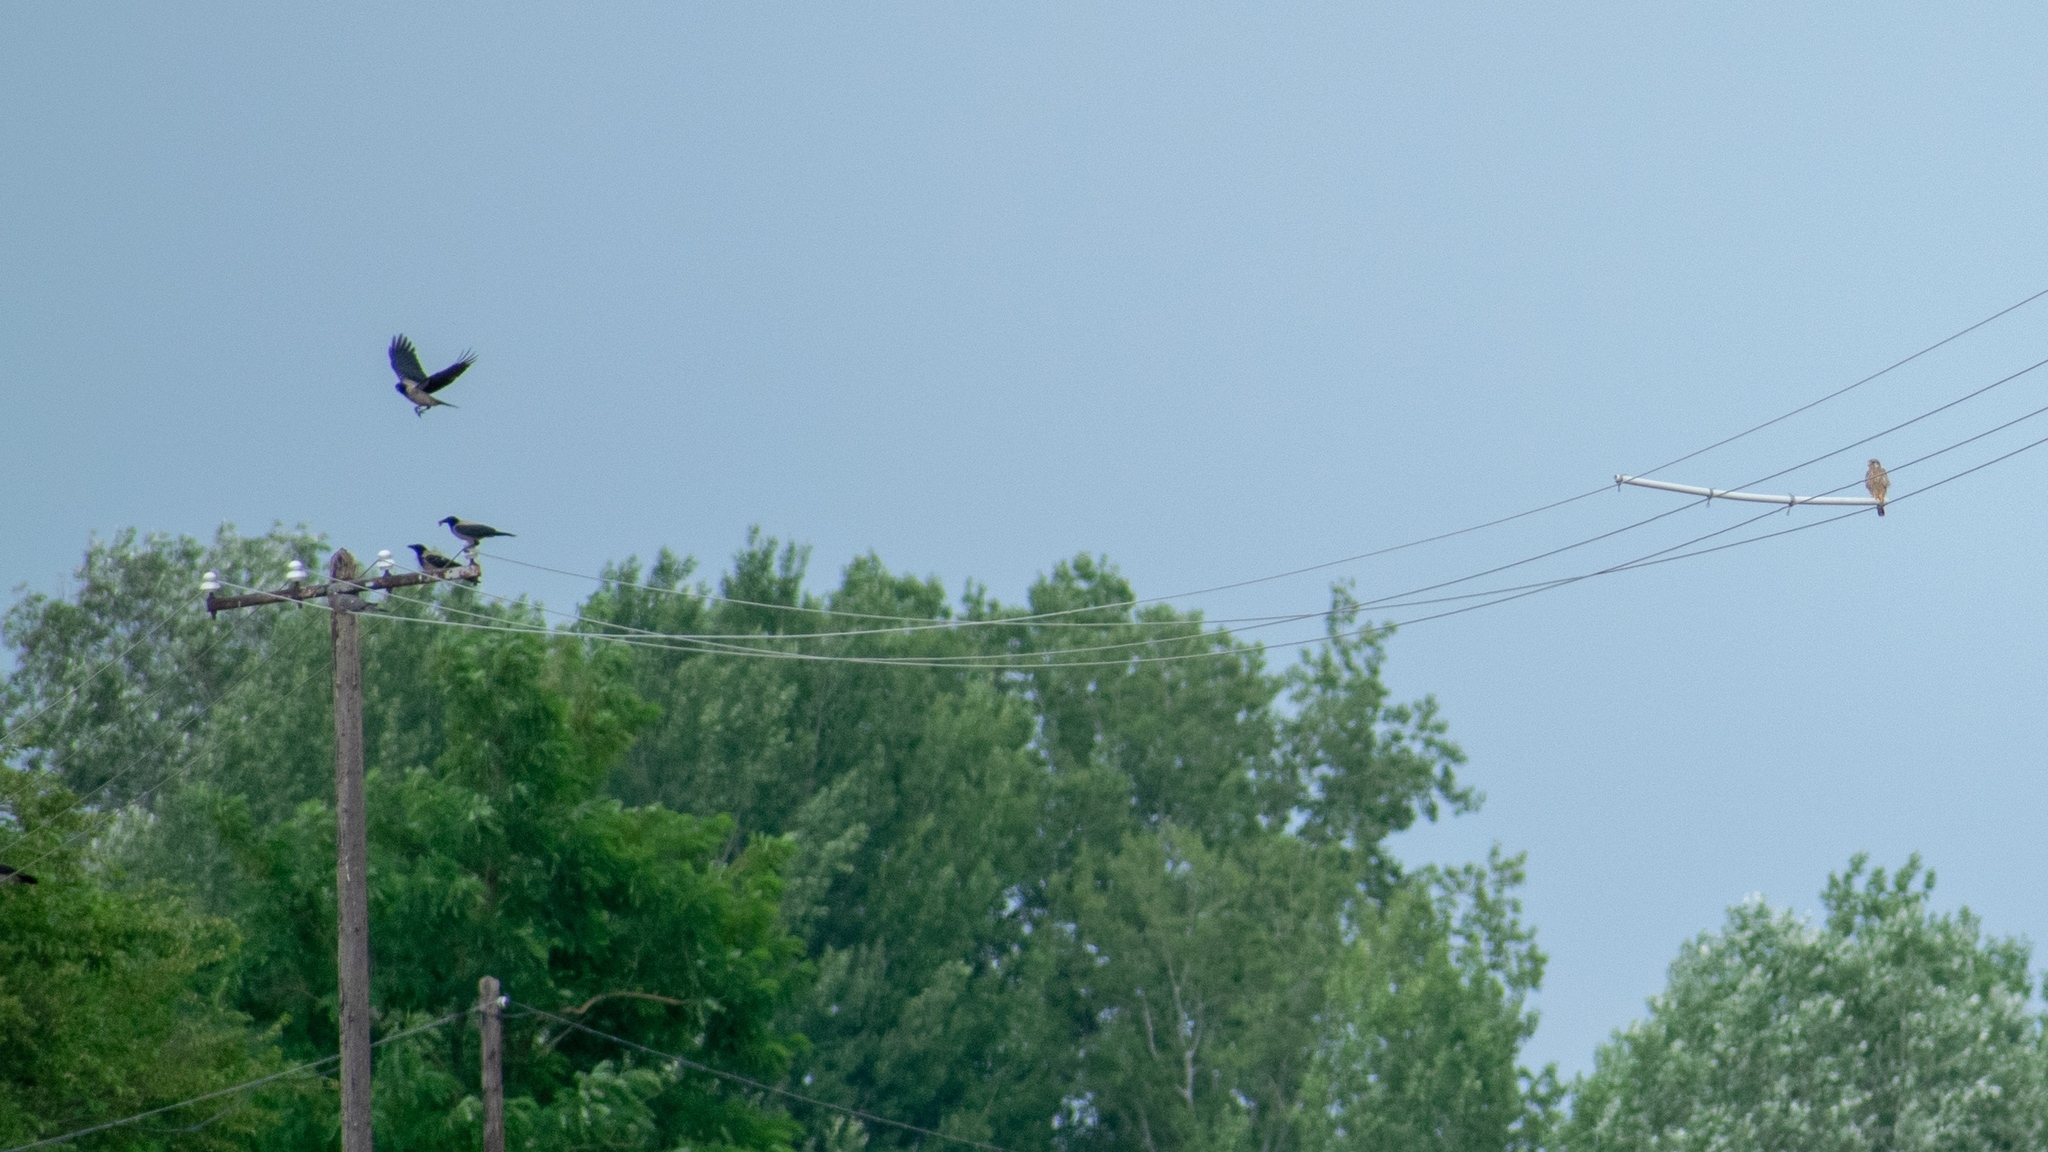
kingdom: Animalia
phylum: Chordata
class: Aves
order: Passeriformes
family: Corvidae
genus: Corvus
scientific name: Corvus cornix
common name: Hooded crow
